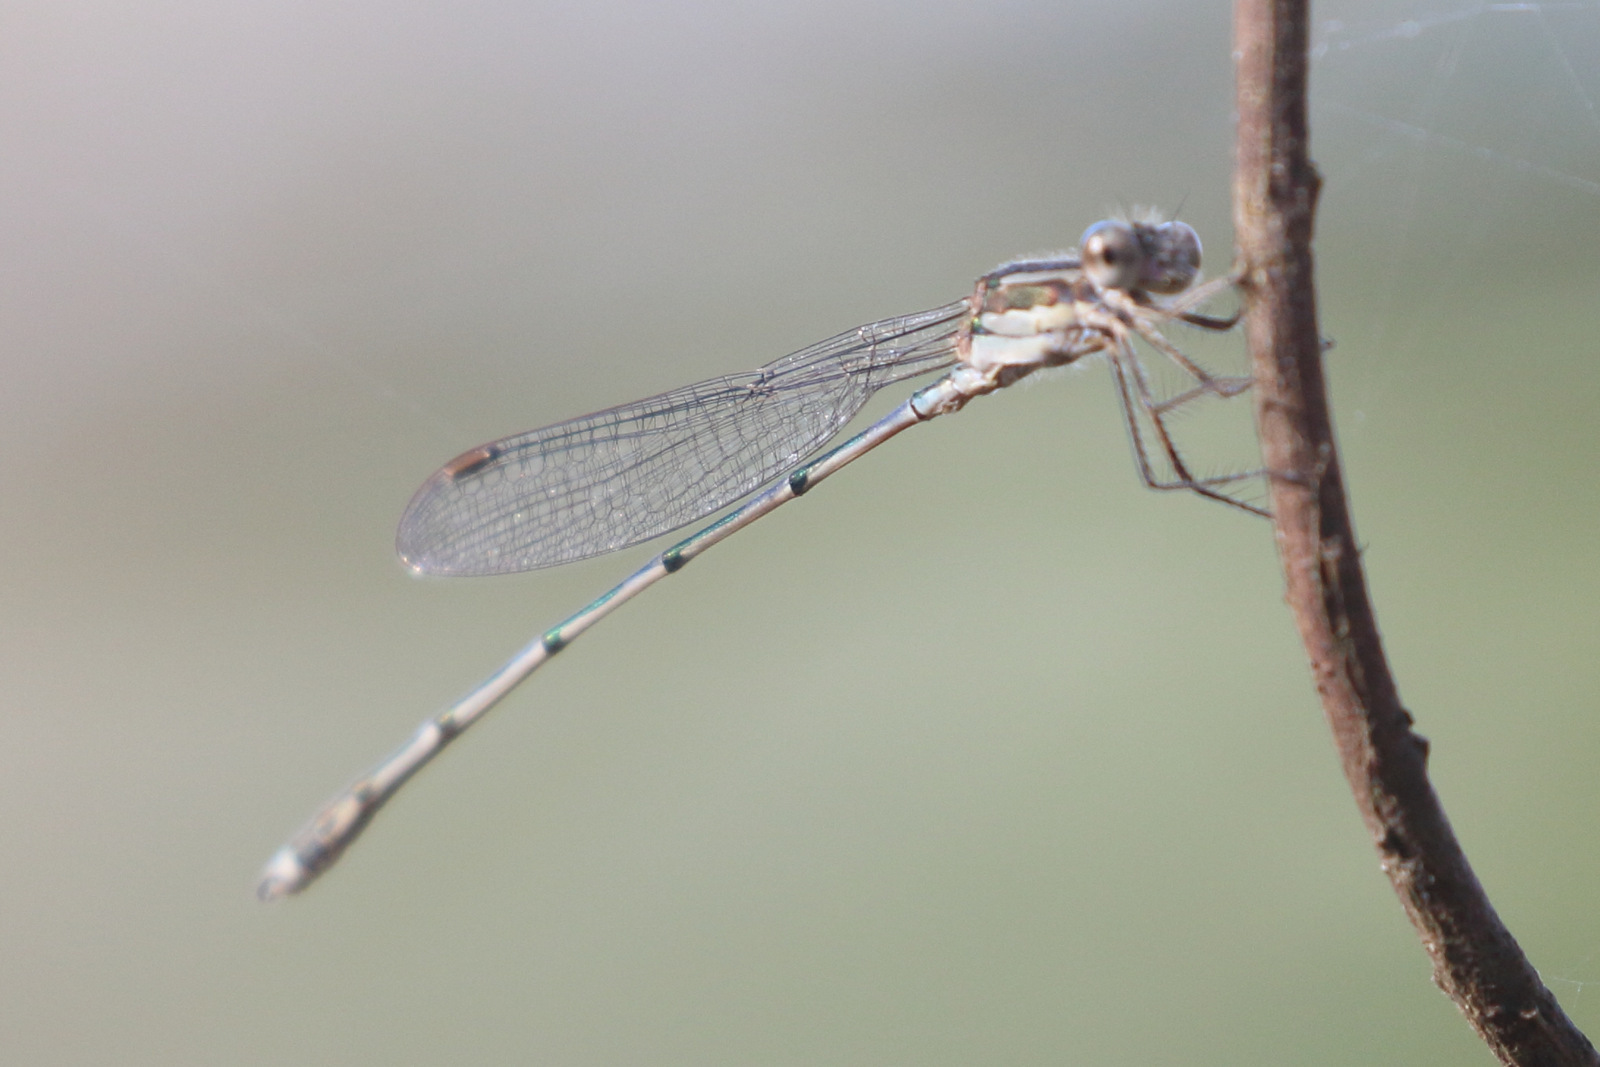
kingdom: Animalia
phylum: Arthropoda
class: Insecta
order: Odonata
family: Lestidae
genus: Austrolestes
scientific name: Austrolestes leda
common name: Wandering ringtail
